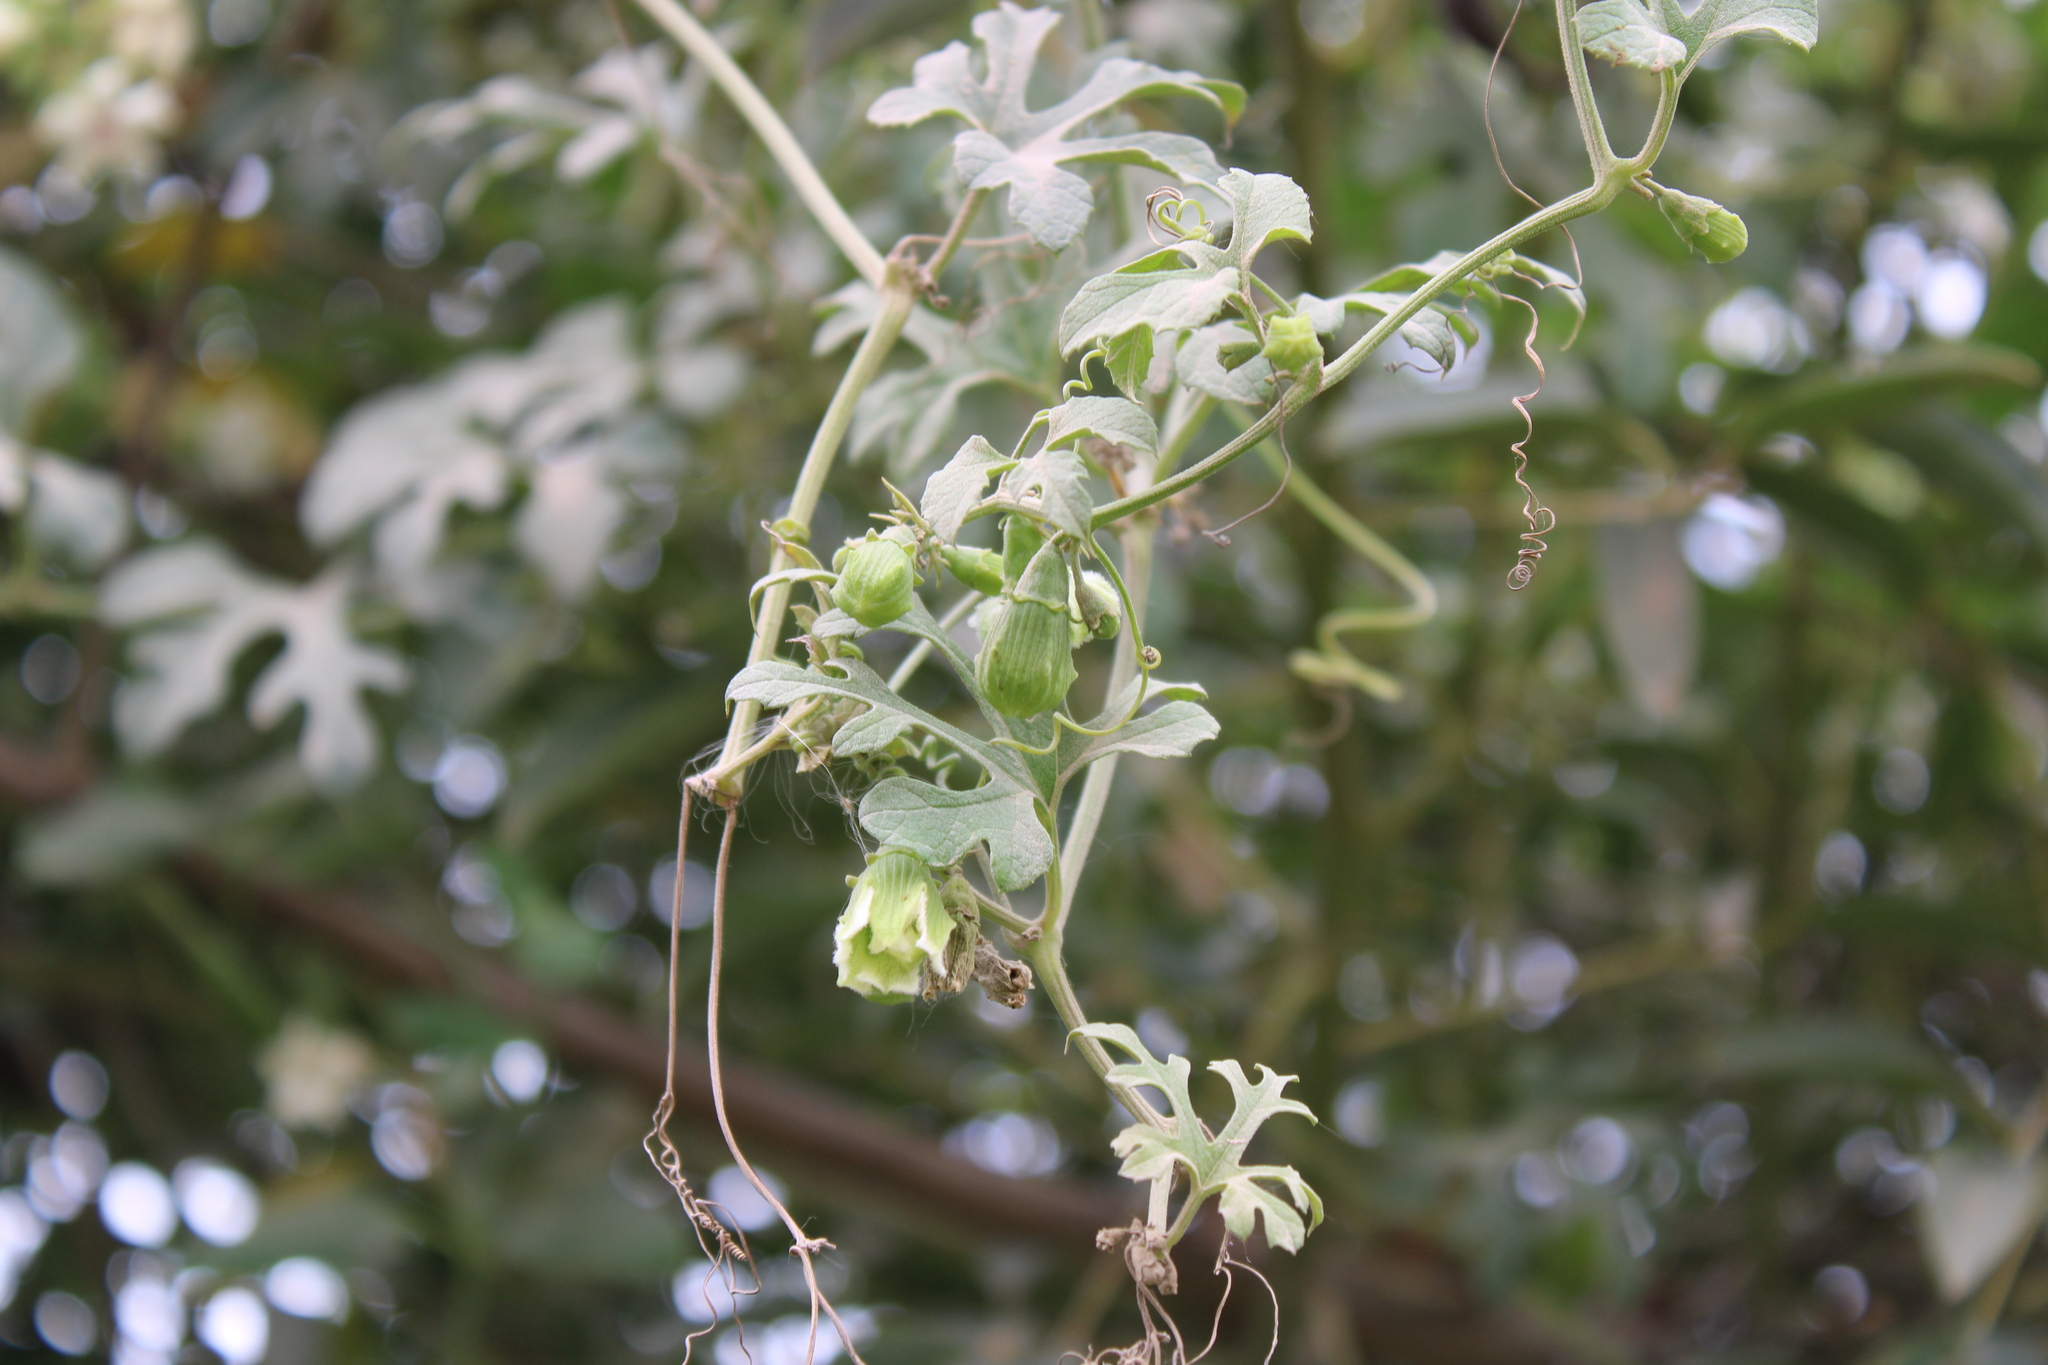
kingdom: Plantae
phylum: Tracheophyta
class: Magnoliopsida
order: Cucurbitales
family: Cucurbitaceae
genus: Cayaponia
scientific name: Cayaponia podantha
